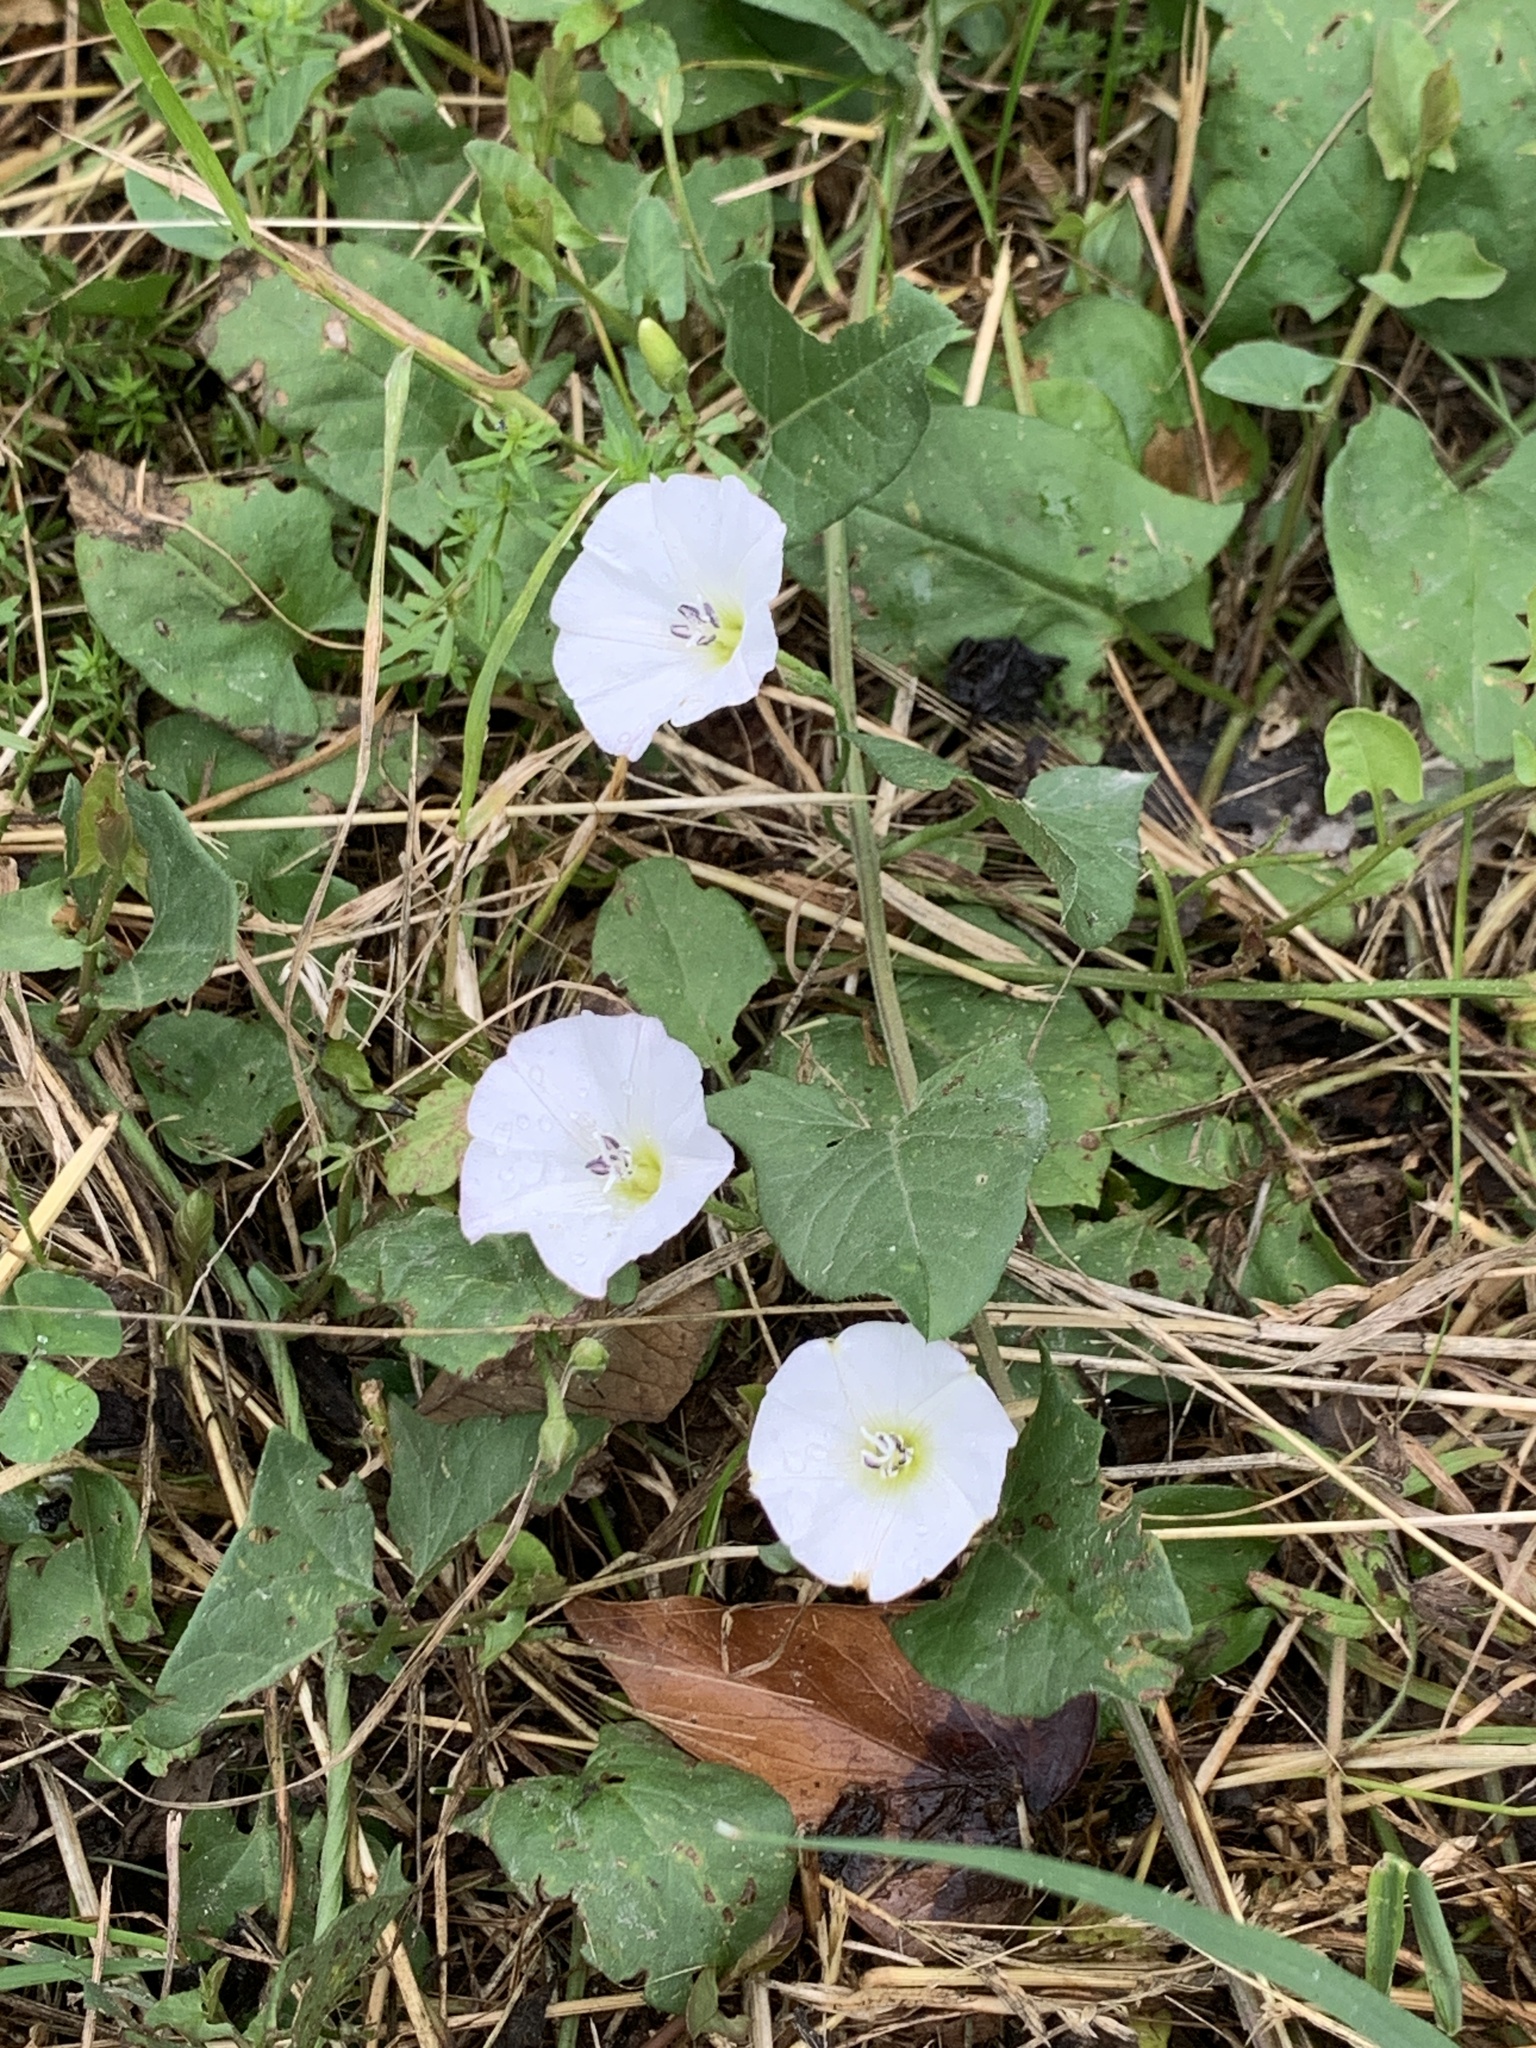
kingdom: Plantae
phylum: Tracheophyta
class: Magnoliopsida
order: Solanales
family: Convolvulaceae
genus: Convolvulus
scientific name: Convolvulus arvensis
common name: Field bindweed
